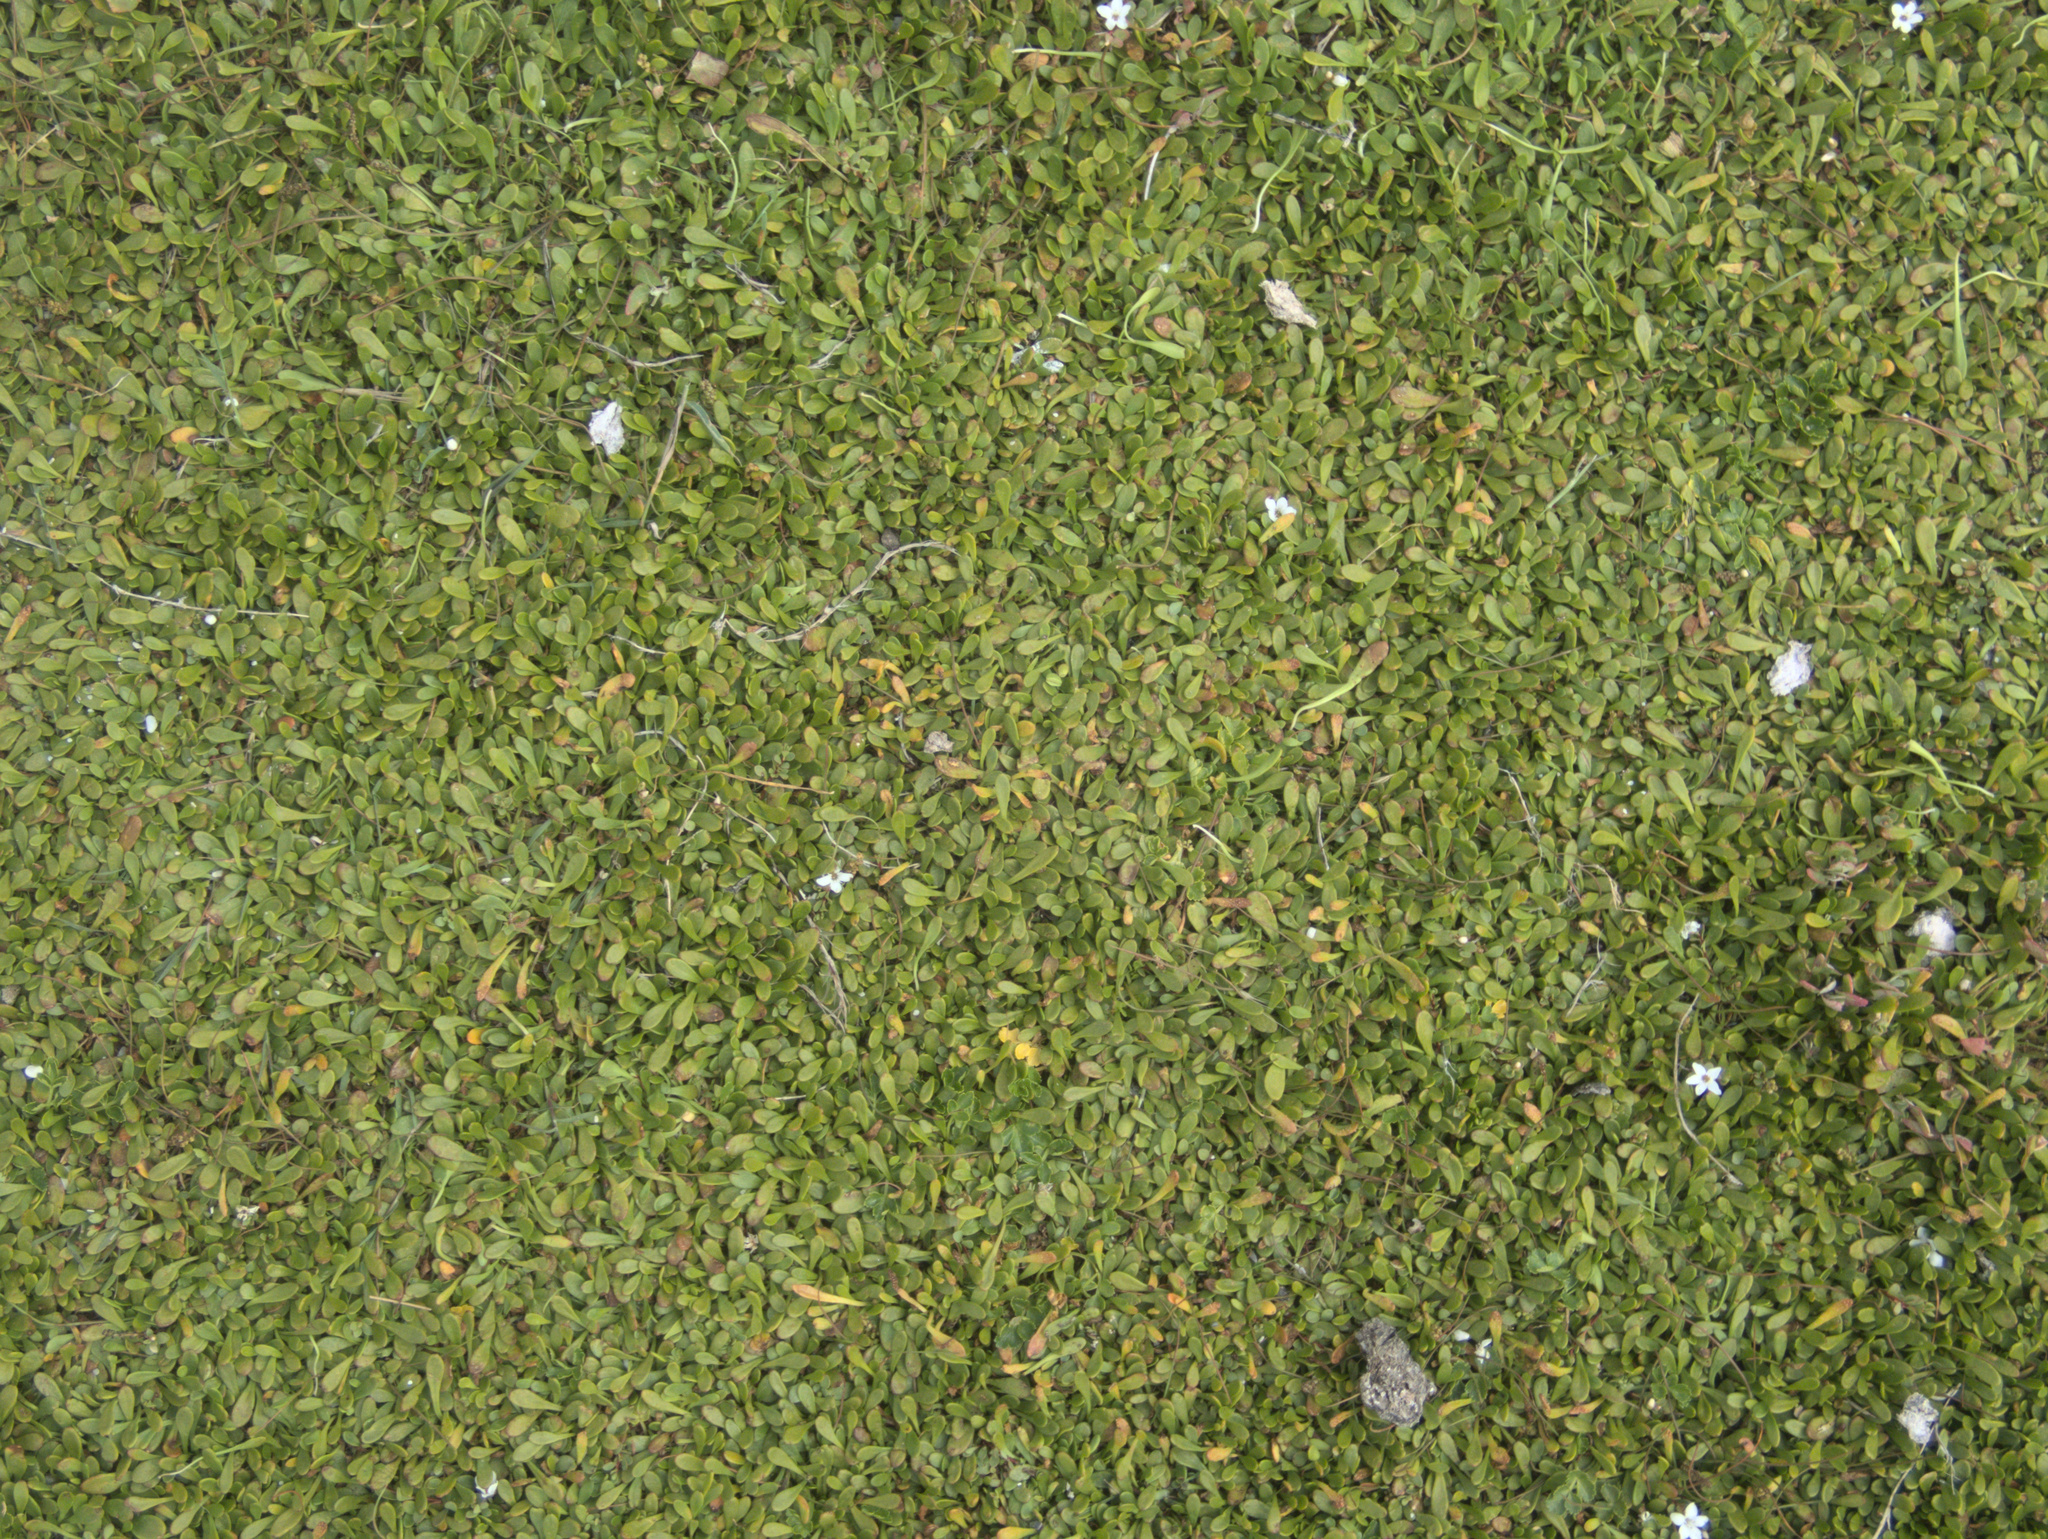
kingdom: Plantae
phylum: Tracheophyta
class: Magnoliopsida
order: Asterales
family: Goodeniaceae
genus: Goodenia
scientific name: Goodenia radicans
